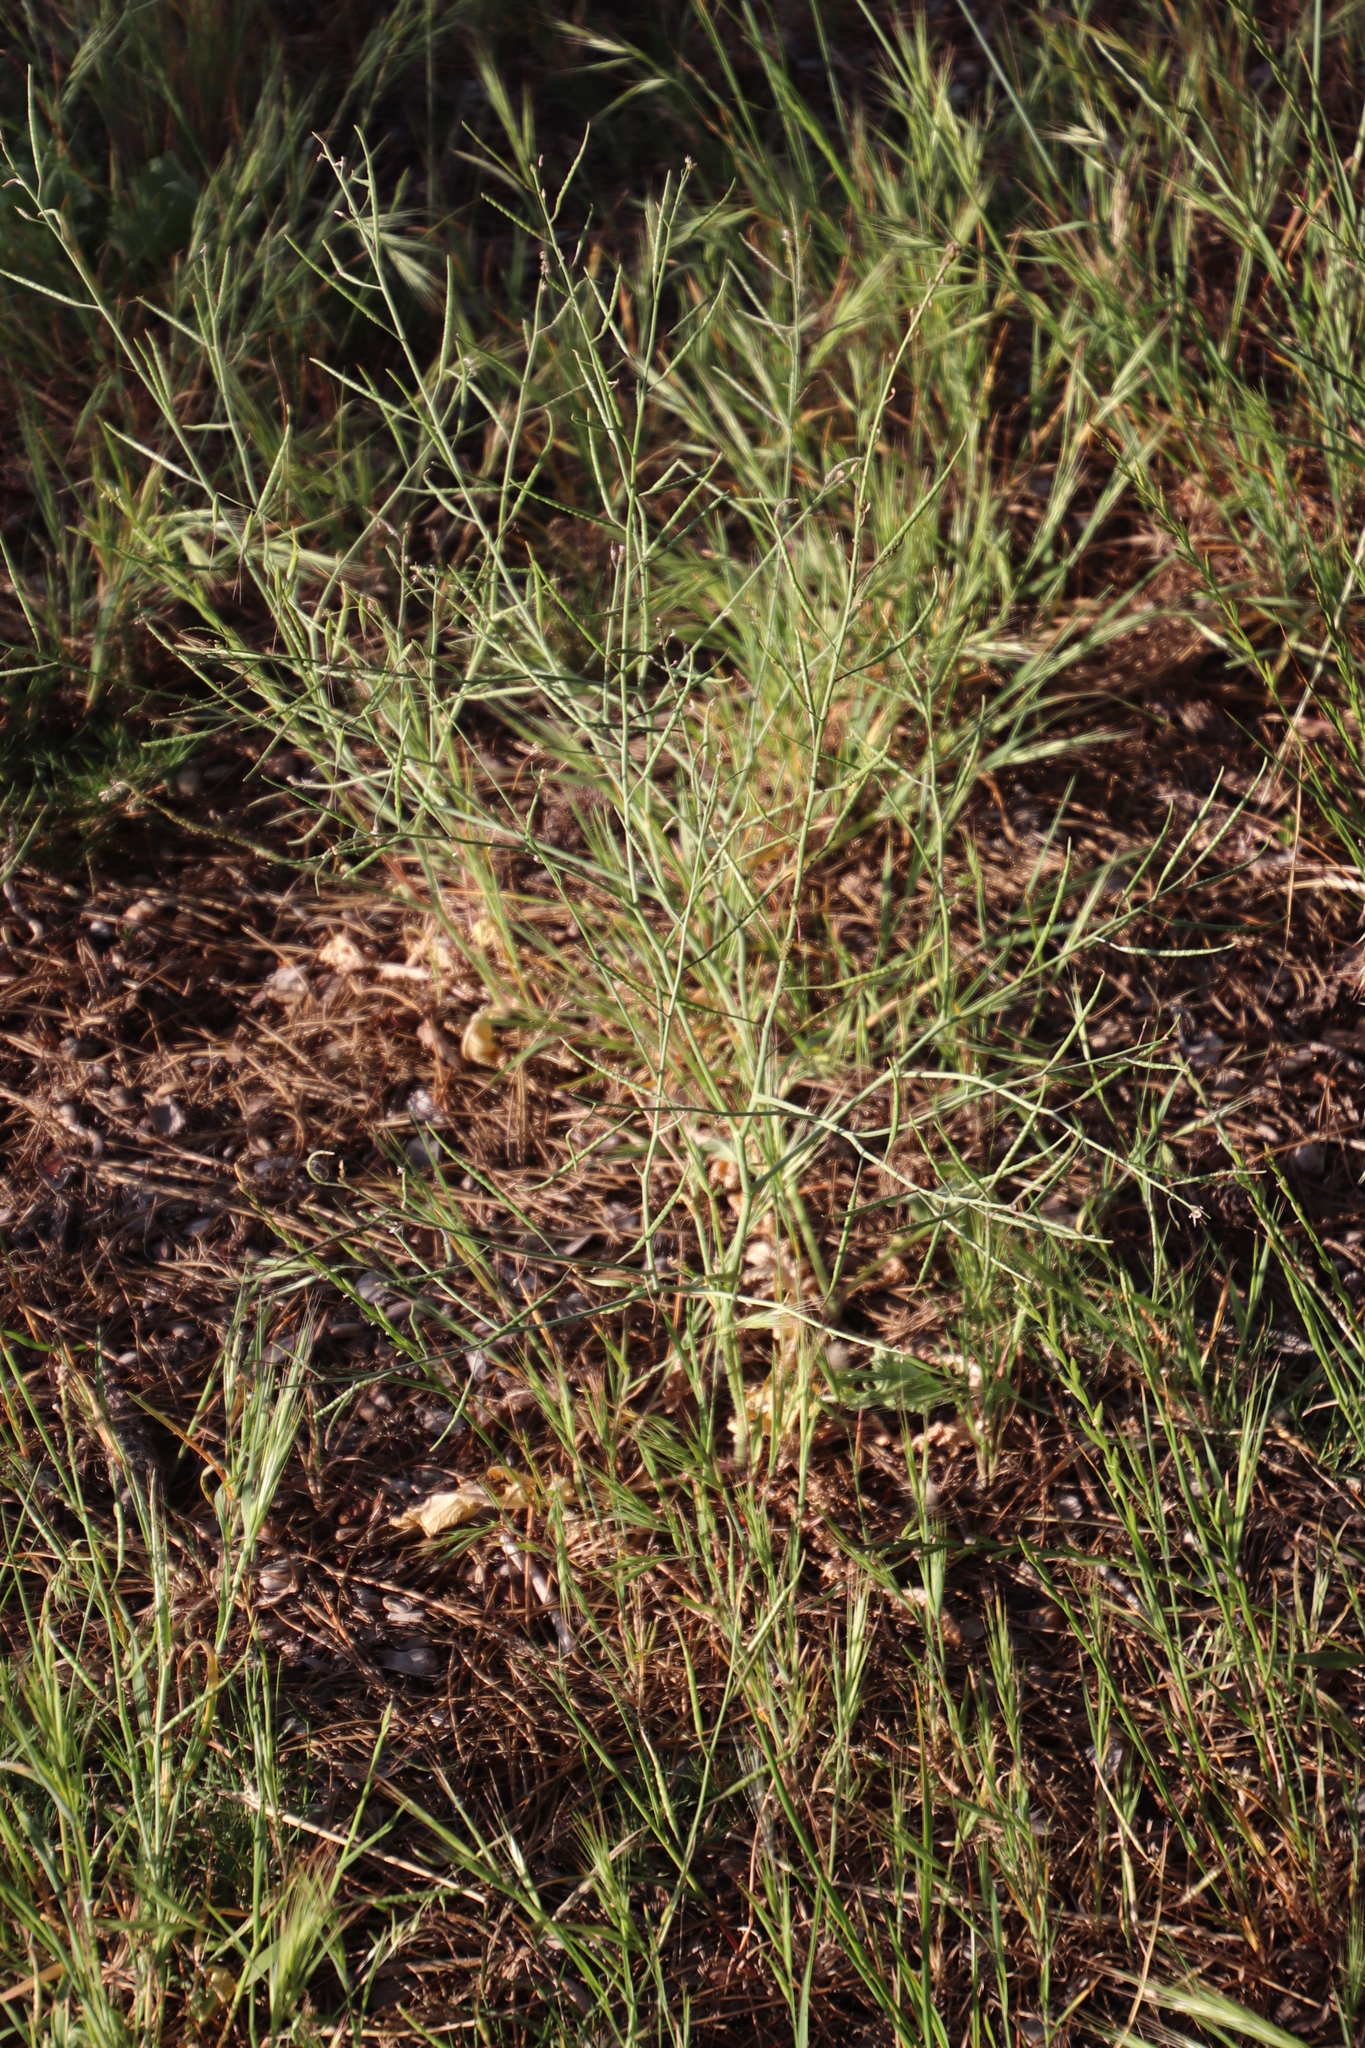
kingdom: Plantae
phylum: Tracheophyta
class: Magnoliopsida
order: Brassicales
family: Brassicaceae
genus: Brassica
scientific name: Brassica tournefortii
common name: Pale cabbage
